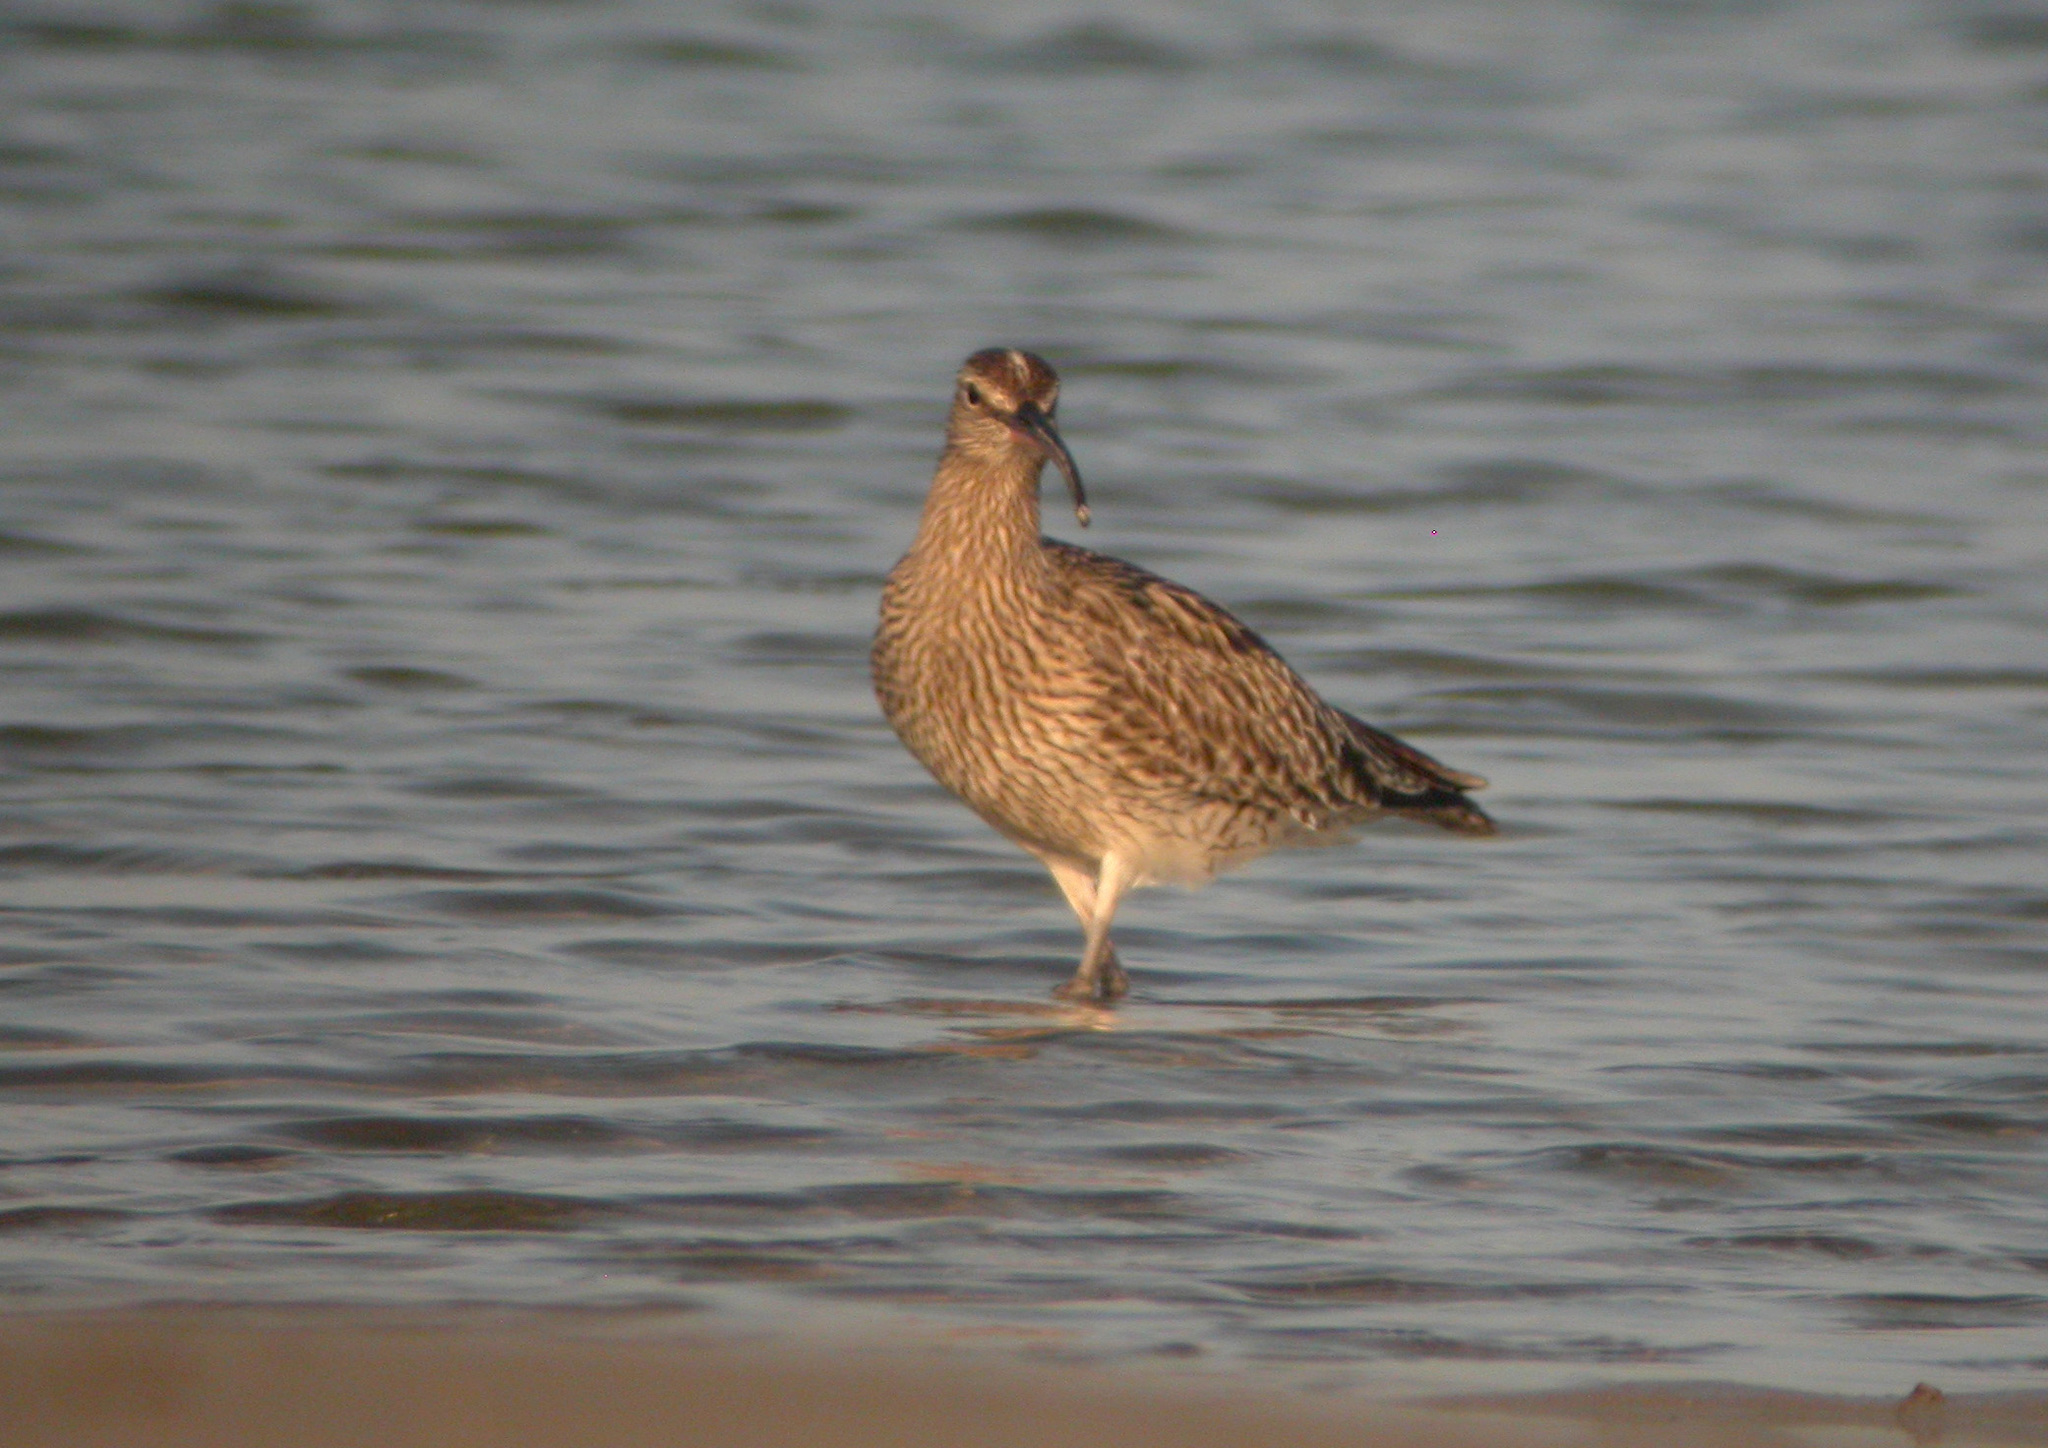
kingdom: Animalia
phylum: Chordata
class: Aves
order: Charadriiformes
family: Scolopacidae
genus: Numenius
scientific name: Numenius phaeopus
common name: Whimbrel
